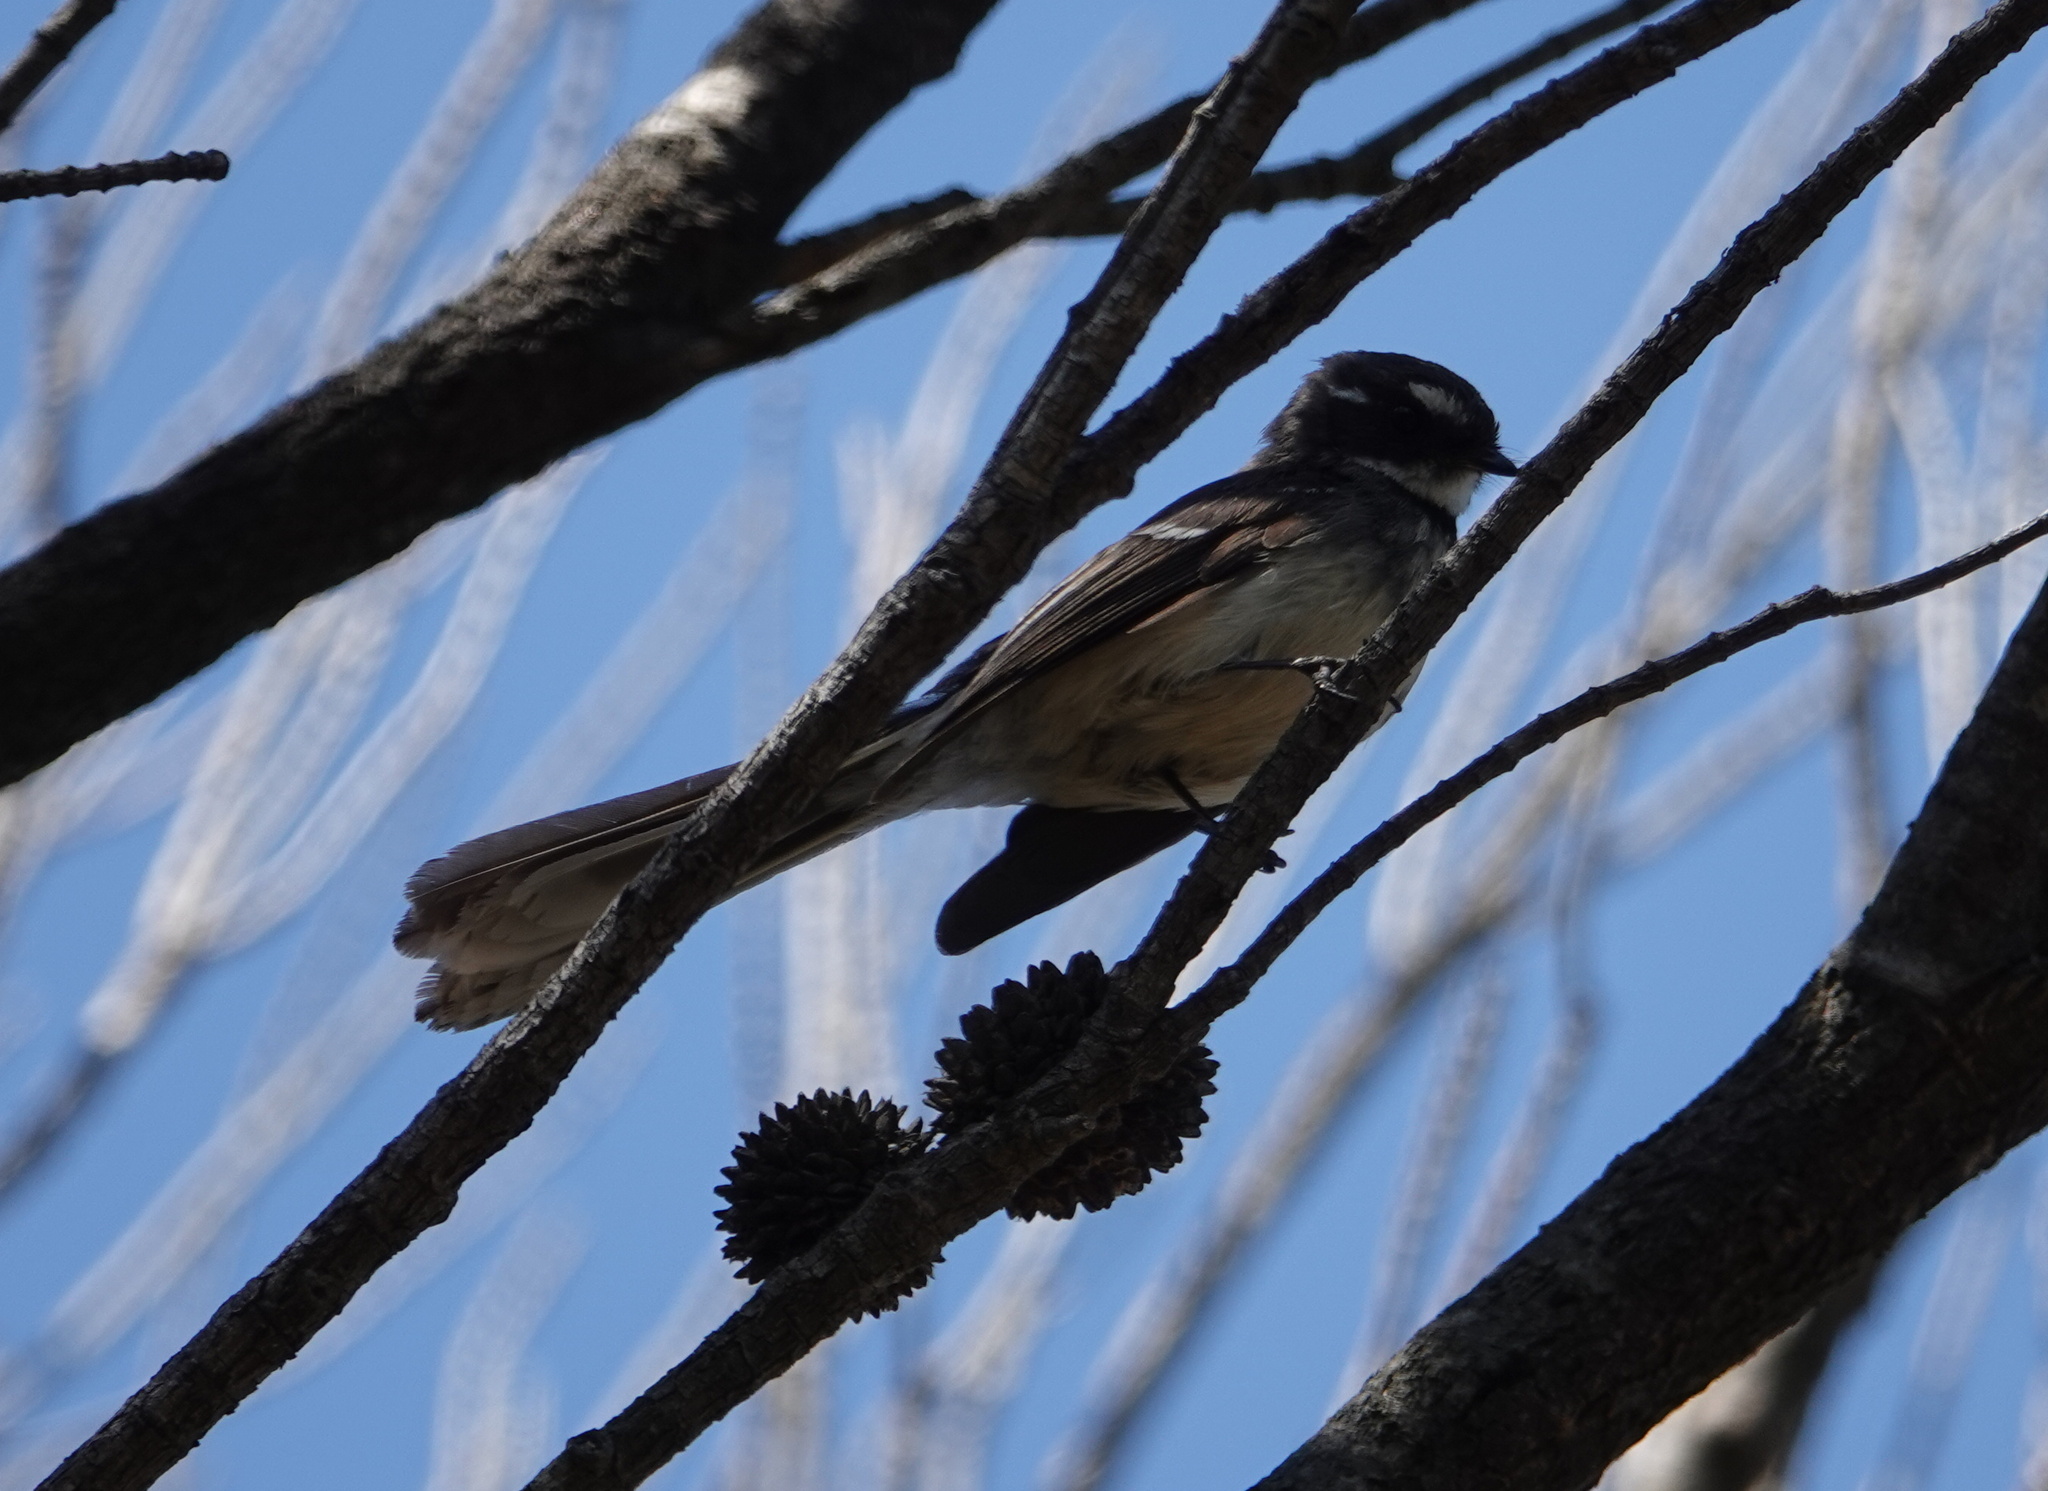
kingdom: Animalia
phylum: Chordata
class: Aves
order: Passeriformes
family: Rhipiduridae
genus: Rhipidura
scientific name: Rhipidura albiscapa
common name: Grey fantail
